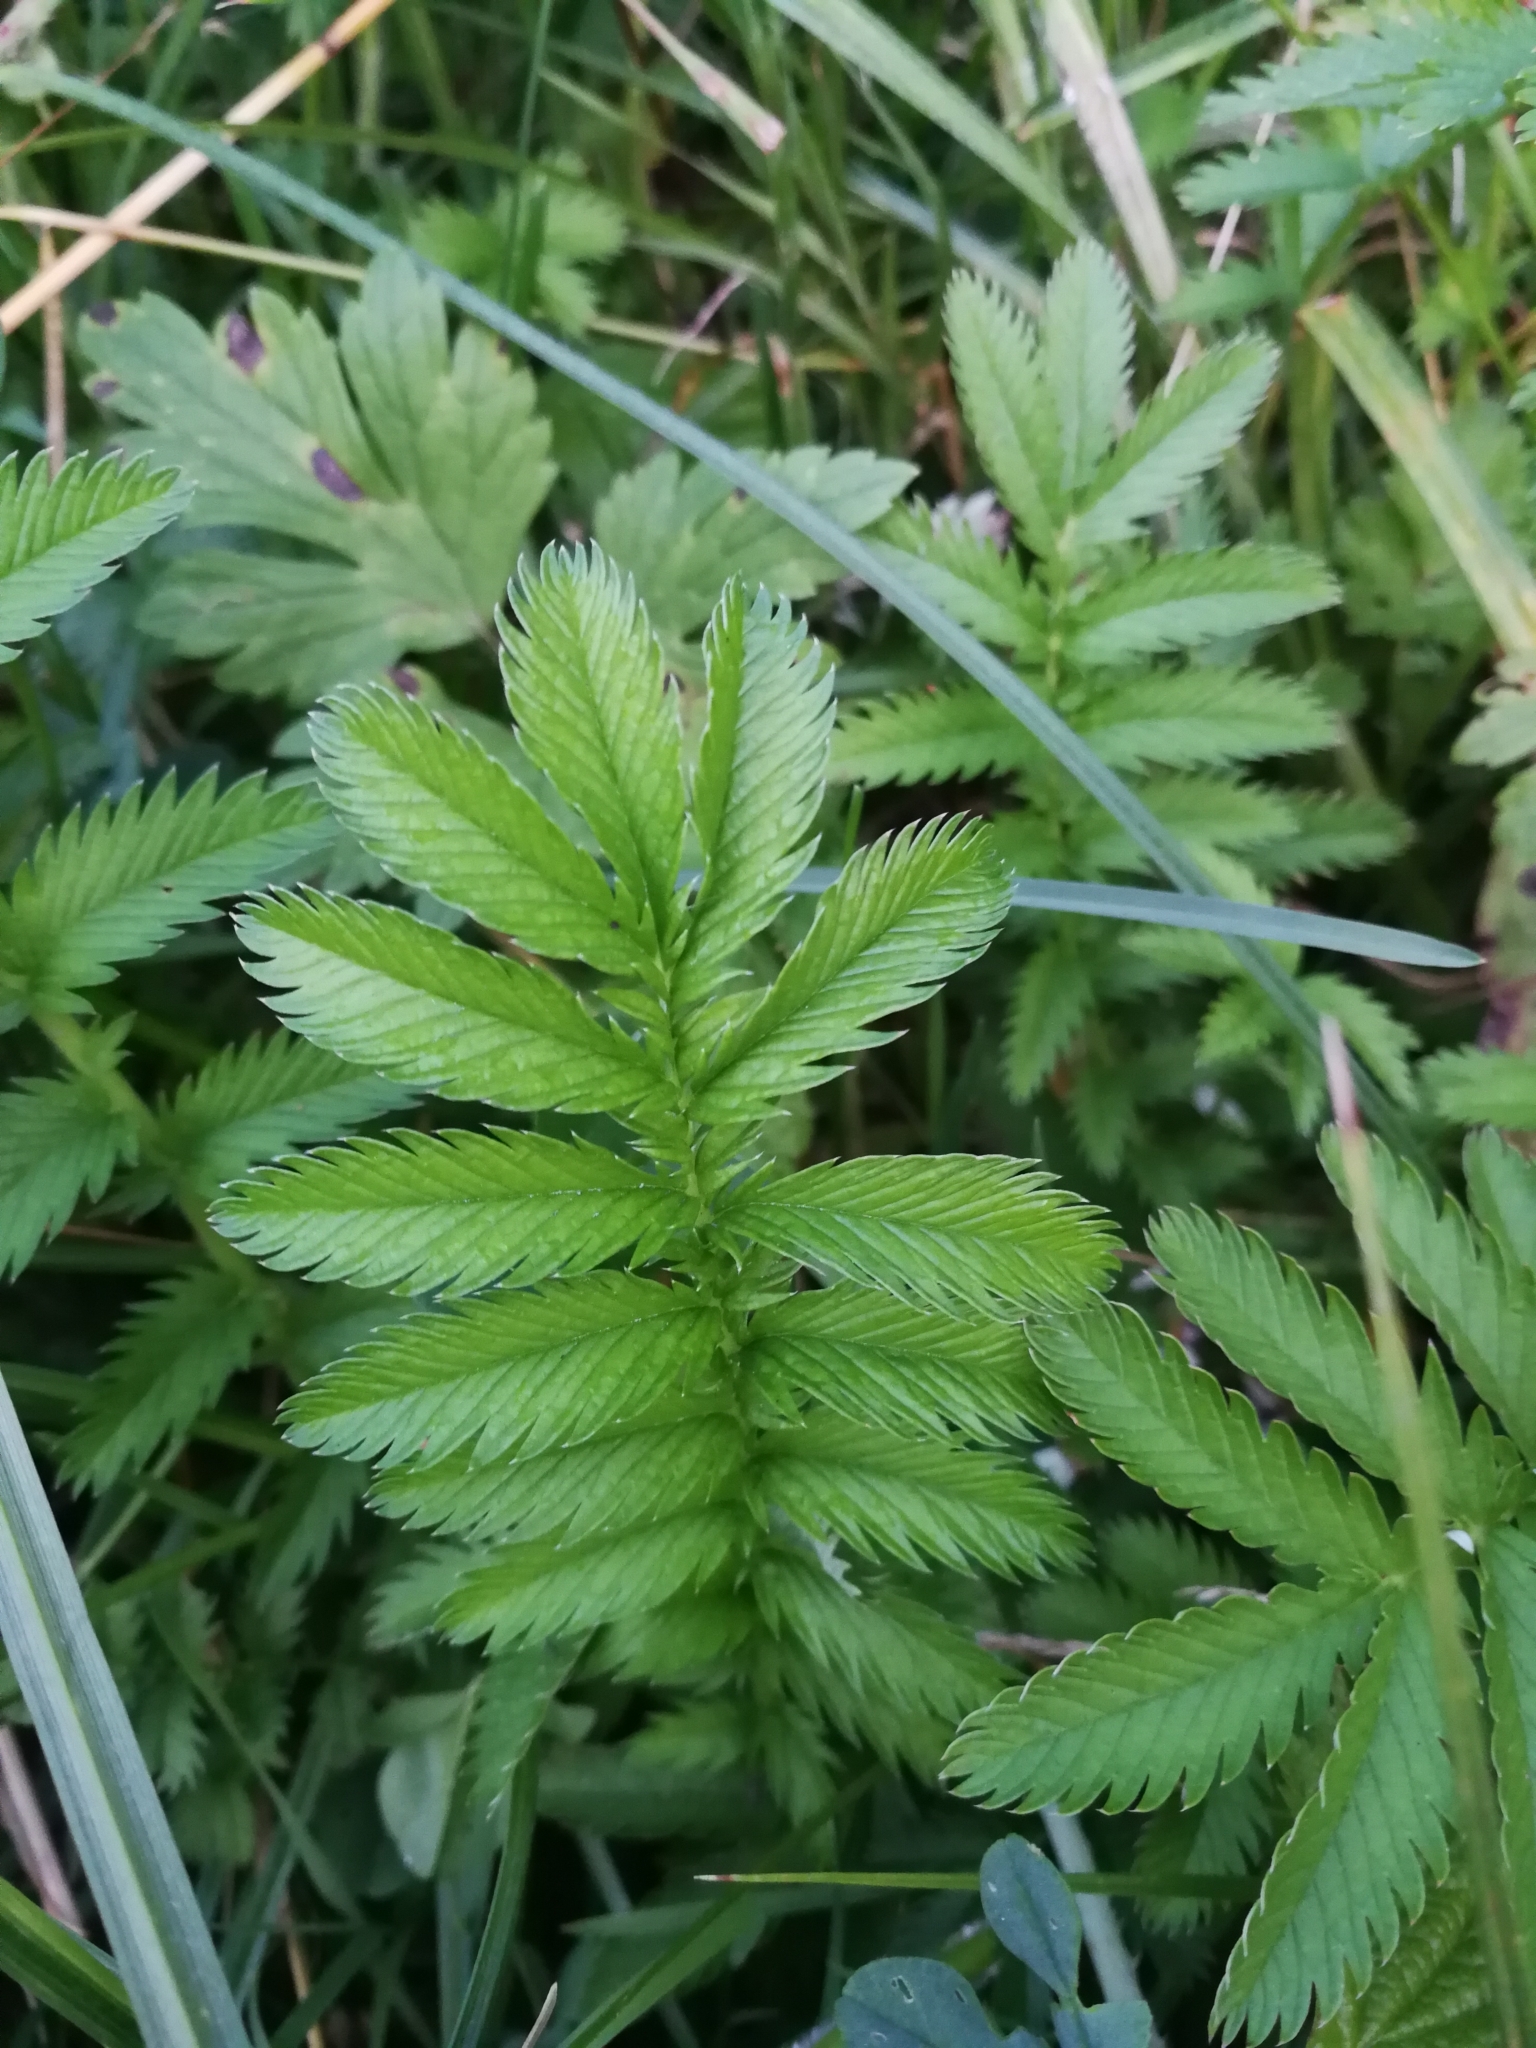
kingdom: Plantae
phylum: Tracheophyta
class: Magnoliopsida
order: Rosales
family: Rosaceae
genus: Argentina
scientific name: Argentina anserina
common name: Common silverweed
